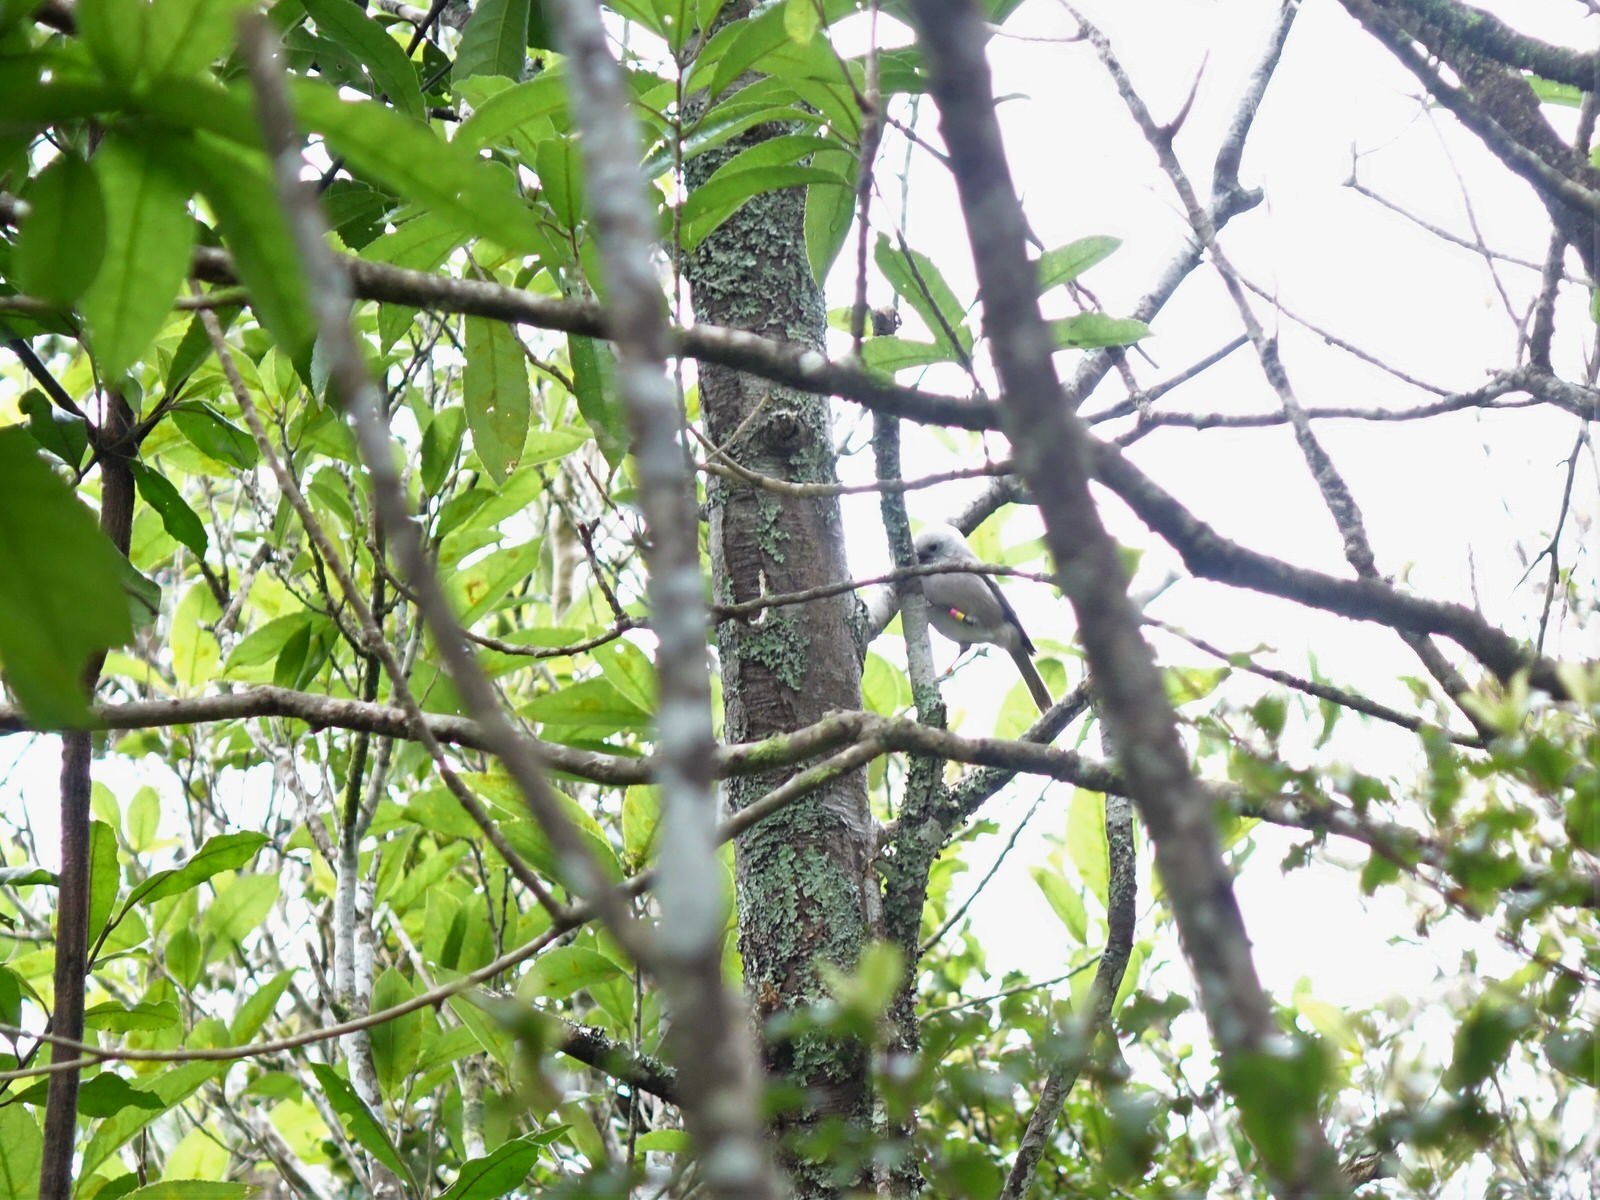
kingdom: Animalia
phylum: Chordata
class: Aves
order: Passeriformes
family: Acanthizidae
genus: Mohoua
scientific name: Mohoua albicilla
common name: Whitehead
